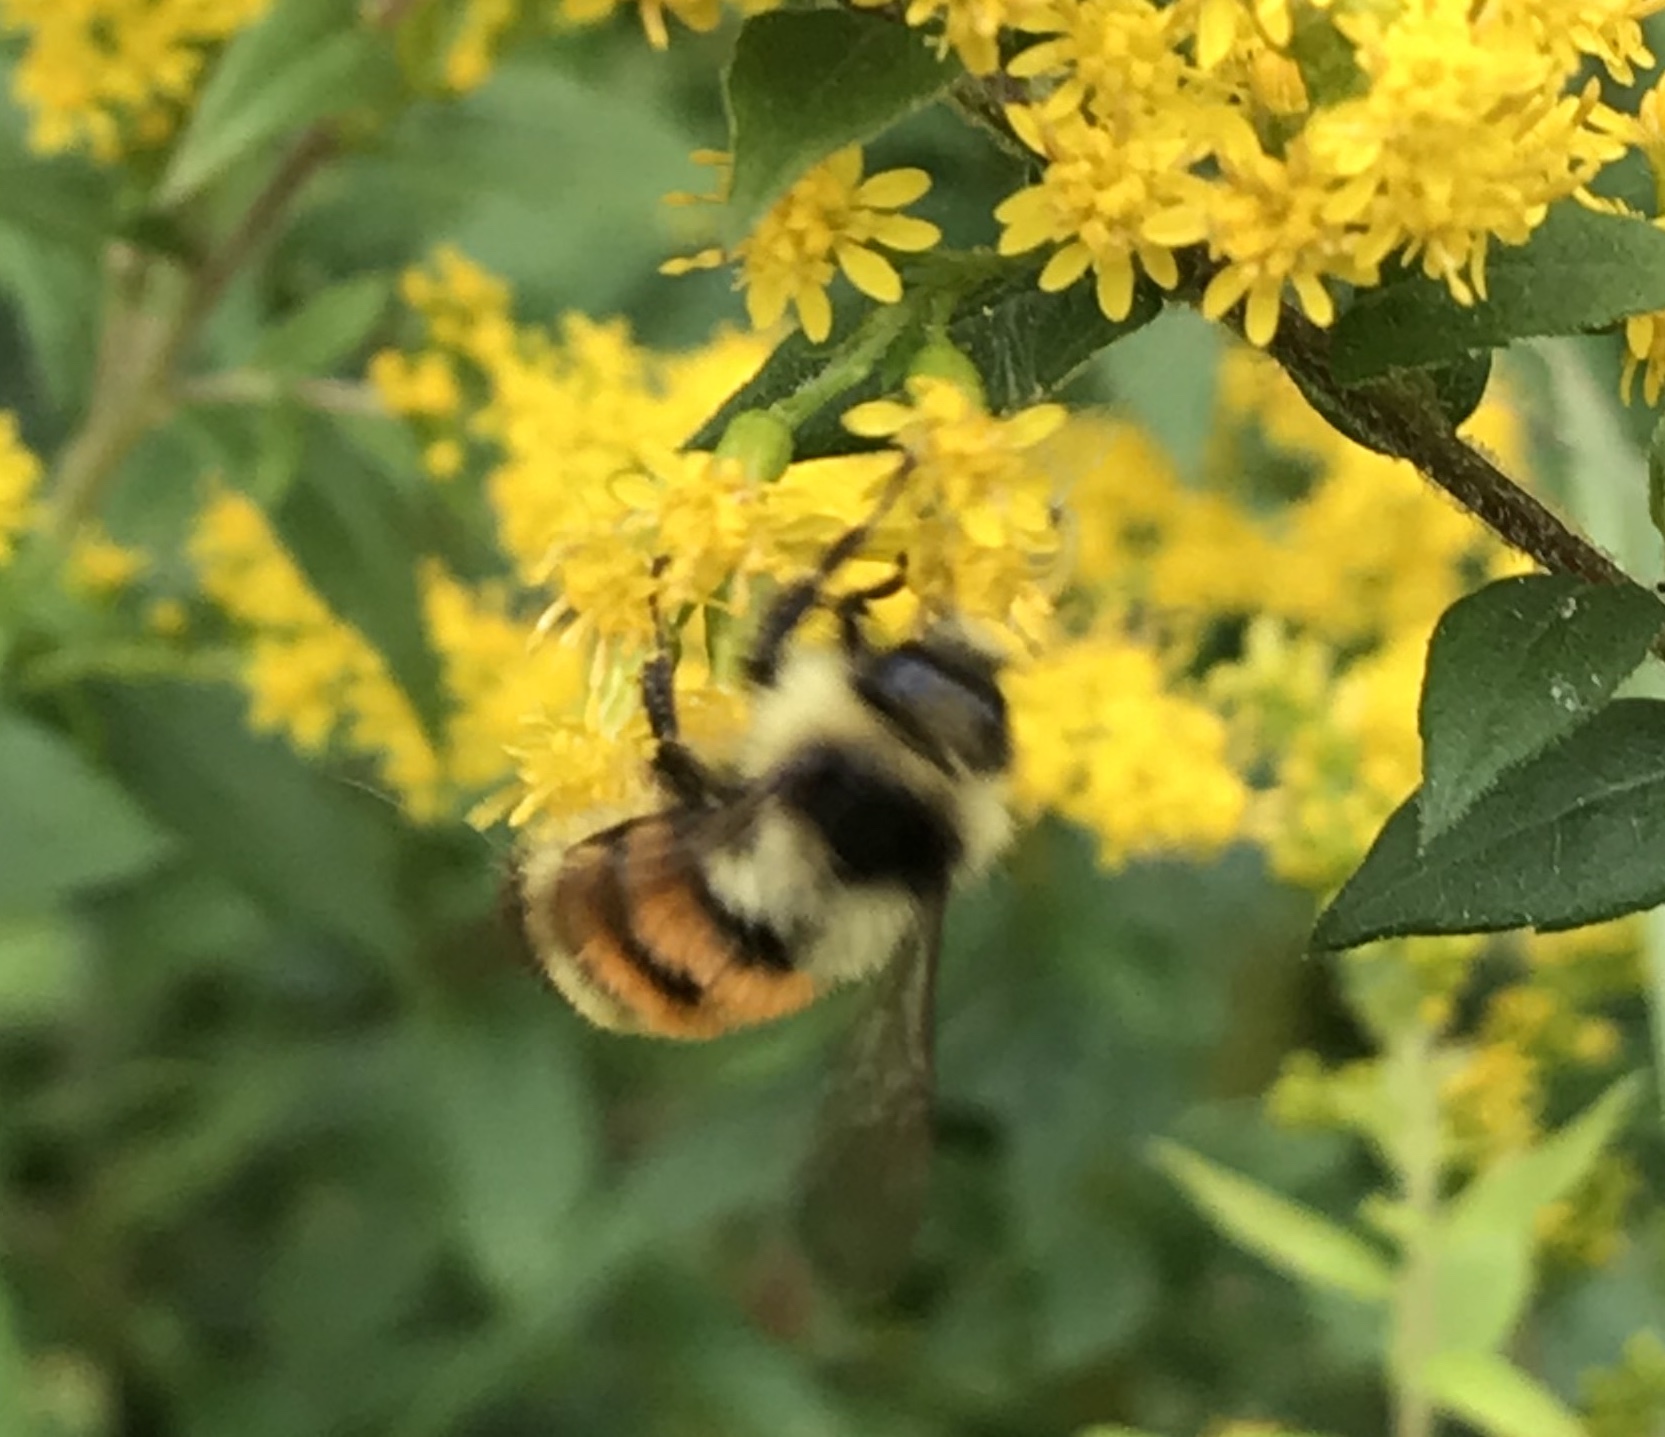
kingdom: Animalia
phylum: Arthropoda
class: Insecta
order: Hymenoptera
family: Apidae
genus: Bombus
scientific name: Bombus ternarius
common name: Tri-colored bumble bee
